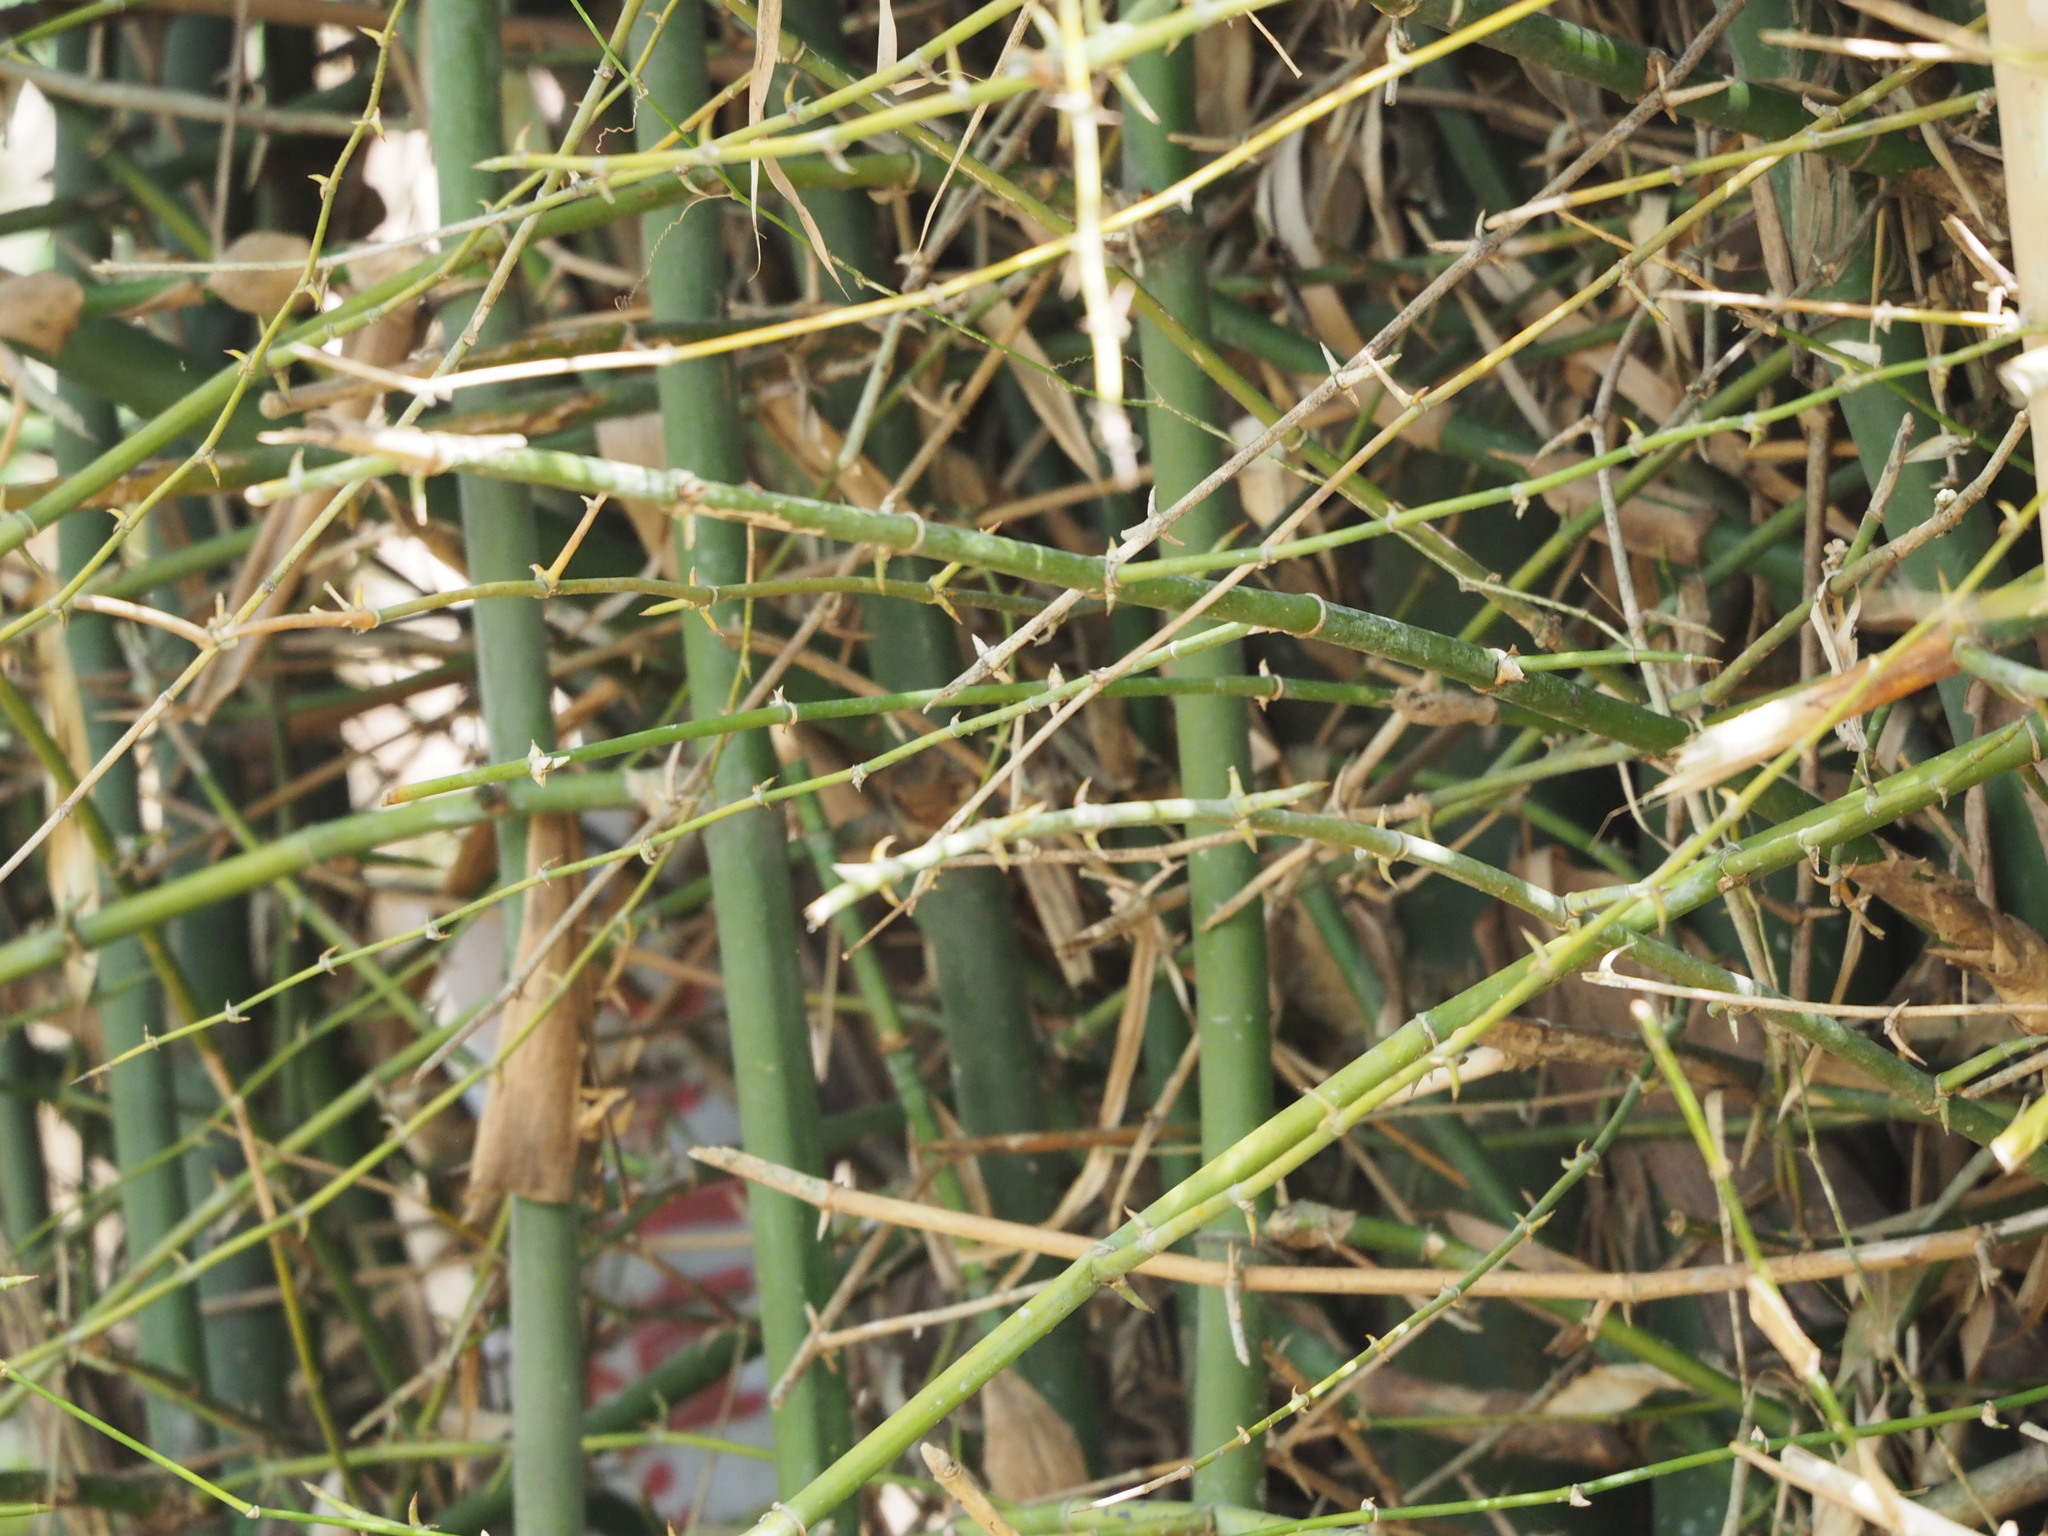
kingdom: Plantae
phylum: Tracheophyta
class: Liliopsida
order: Poales
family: Poaceae
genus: Bambusa
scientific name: Bambusa spinosa
